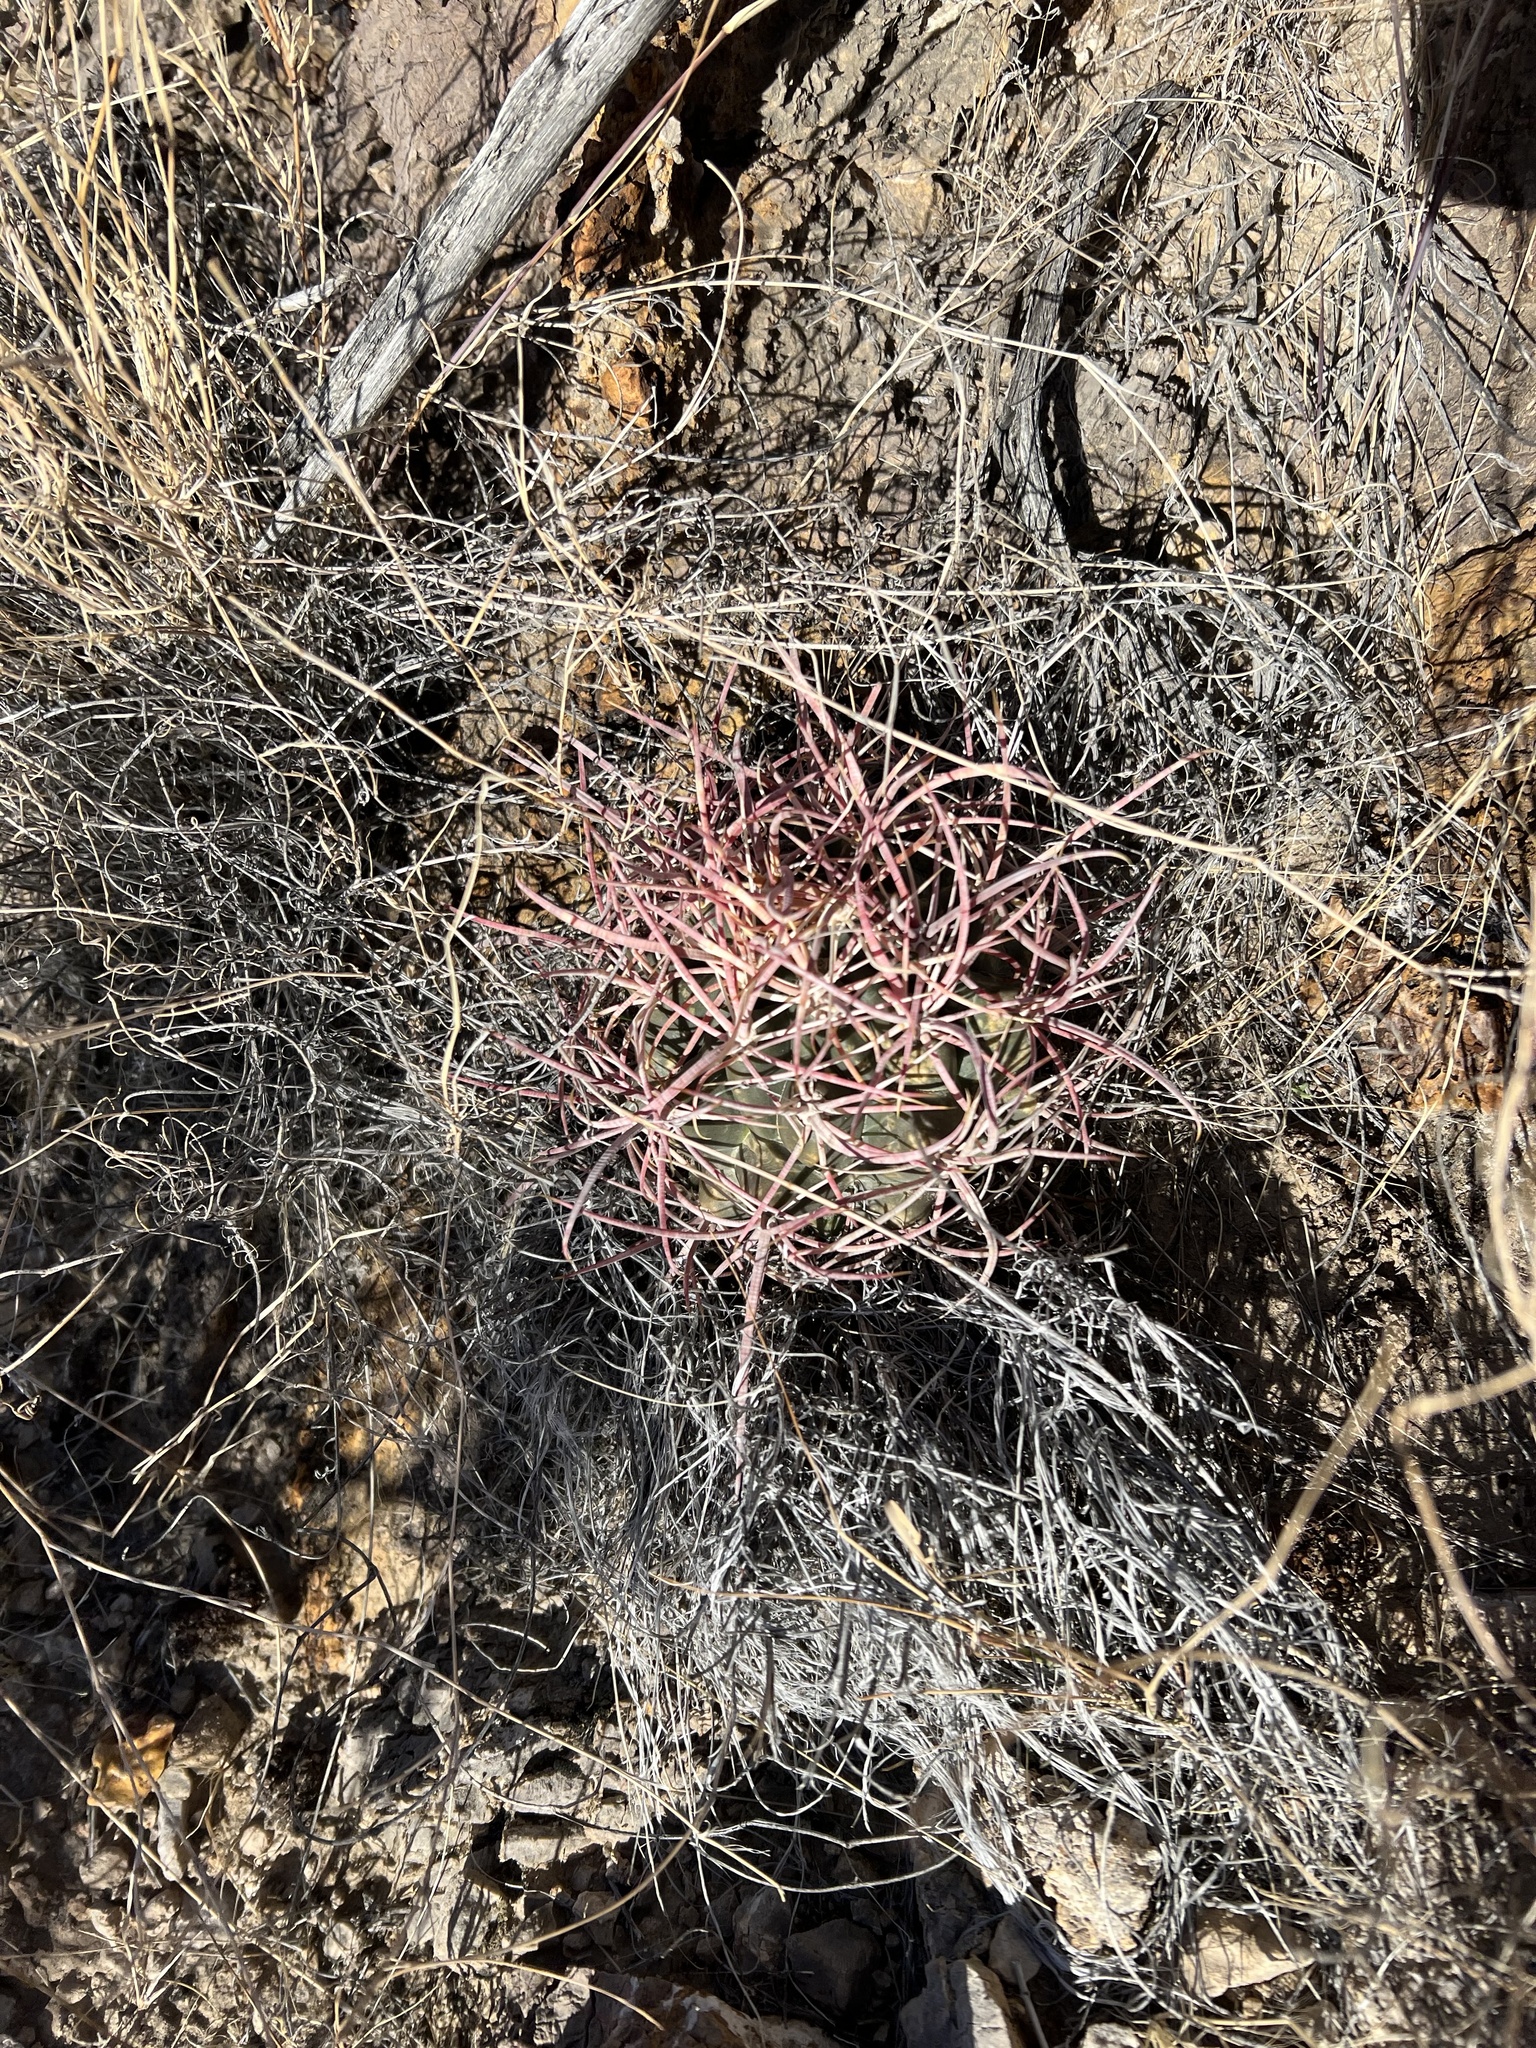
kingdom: Plantae
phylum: Tracheophyta
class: Magnoliopsida
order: Caryophyllales
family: Cactaceae
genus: Ferocactus
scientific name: Ferocactus cylindraceus
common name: California barrel cactus
